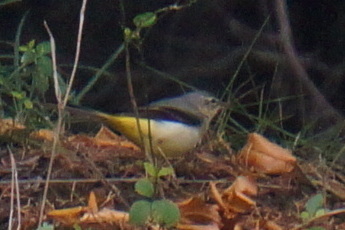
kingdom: Animalia
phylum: Chordata
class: Aves
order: Passeriformes
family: Motacillidae
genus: Motacilla
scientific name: Motacilla cinerea
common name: Grey wagtail
